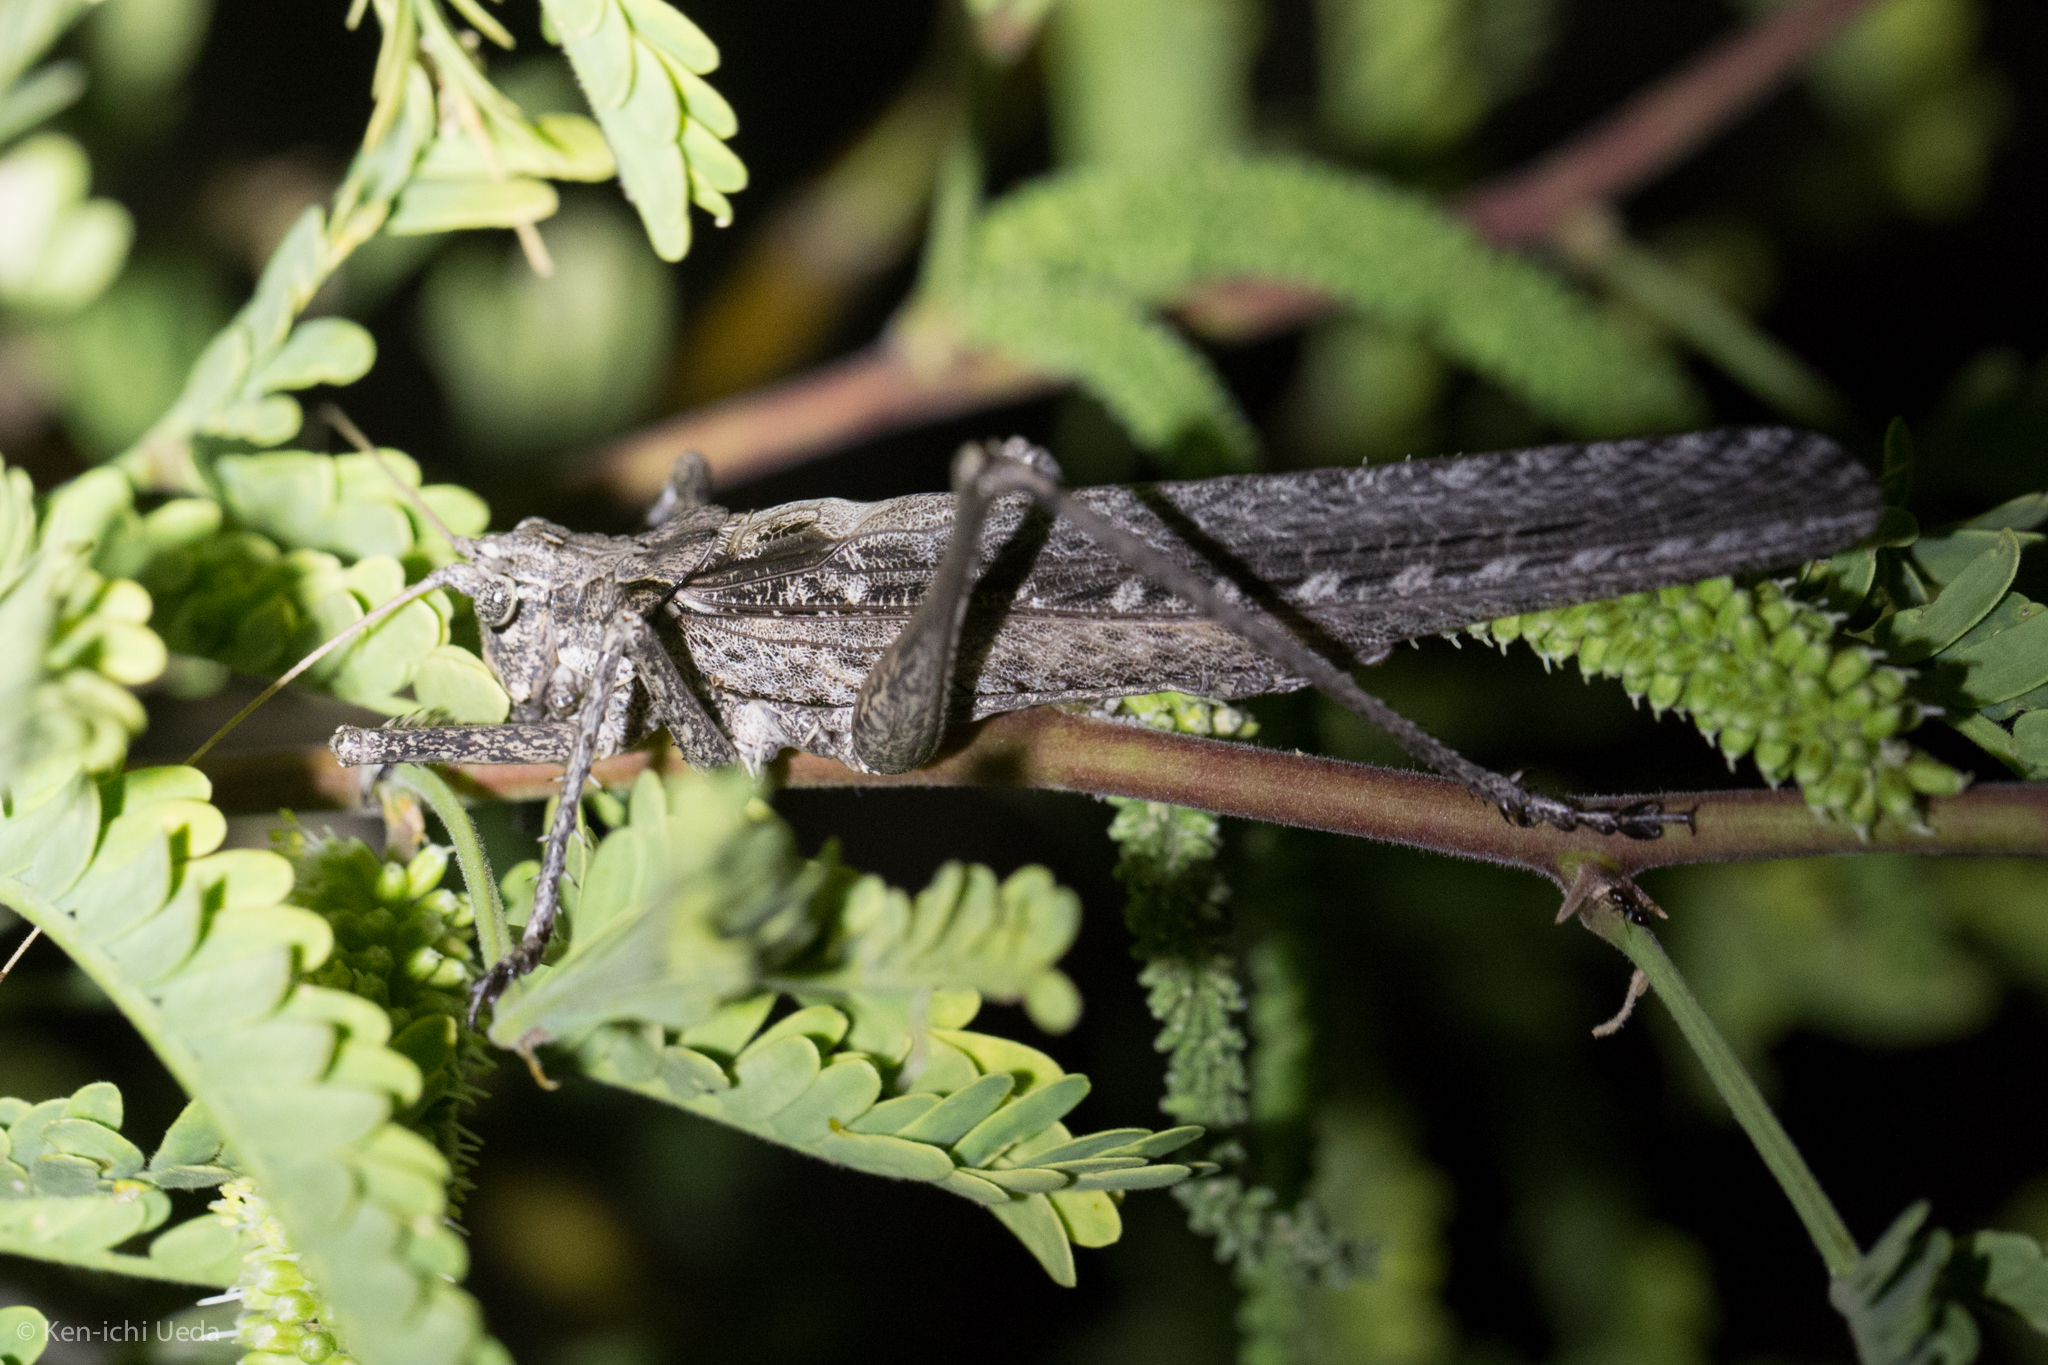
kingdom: Animalia
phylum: Arthropoda
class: Insecta
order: Orthoptera
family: Tettigoniidae
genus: Capnobotes
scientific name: Capnobotes fuliginosus
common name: Sooty longwing
